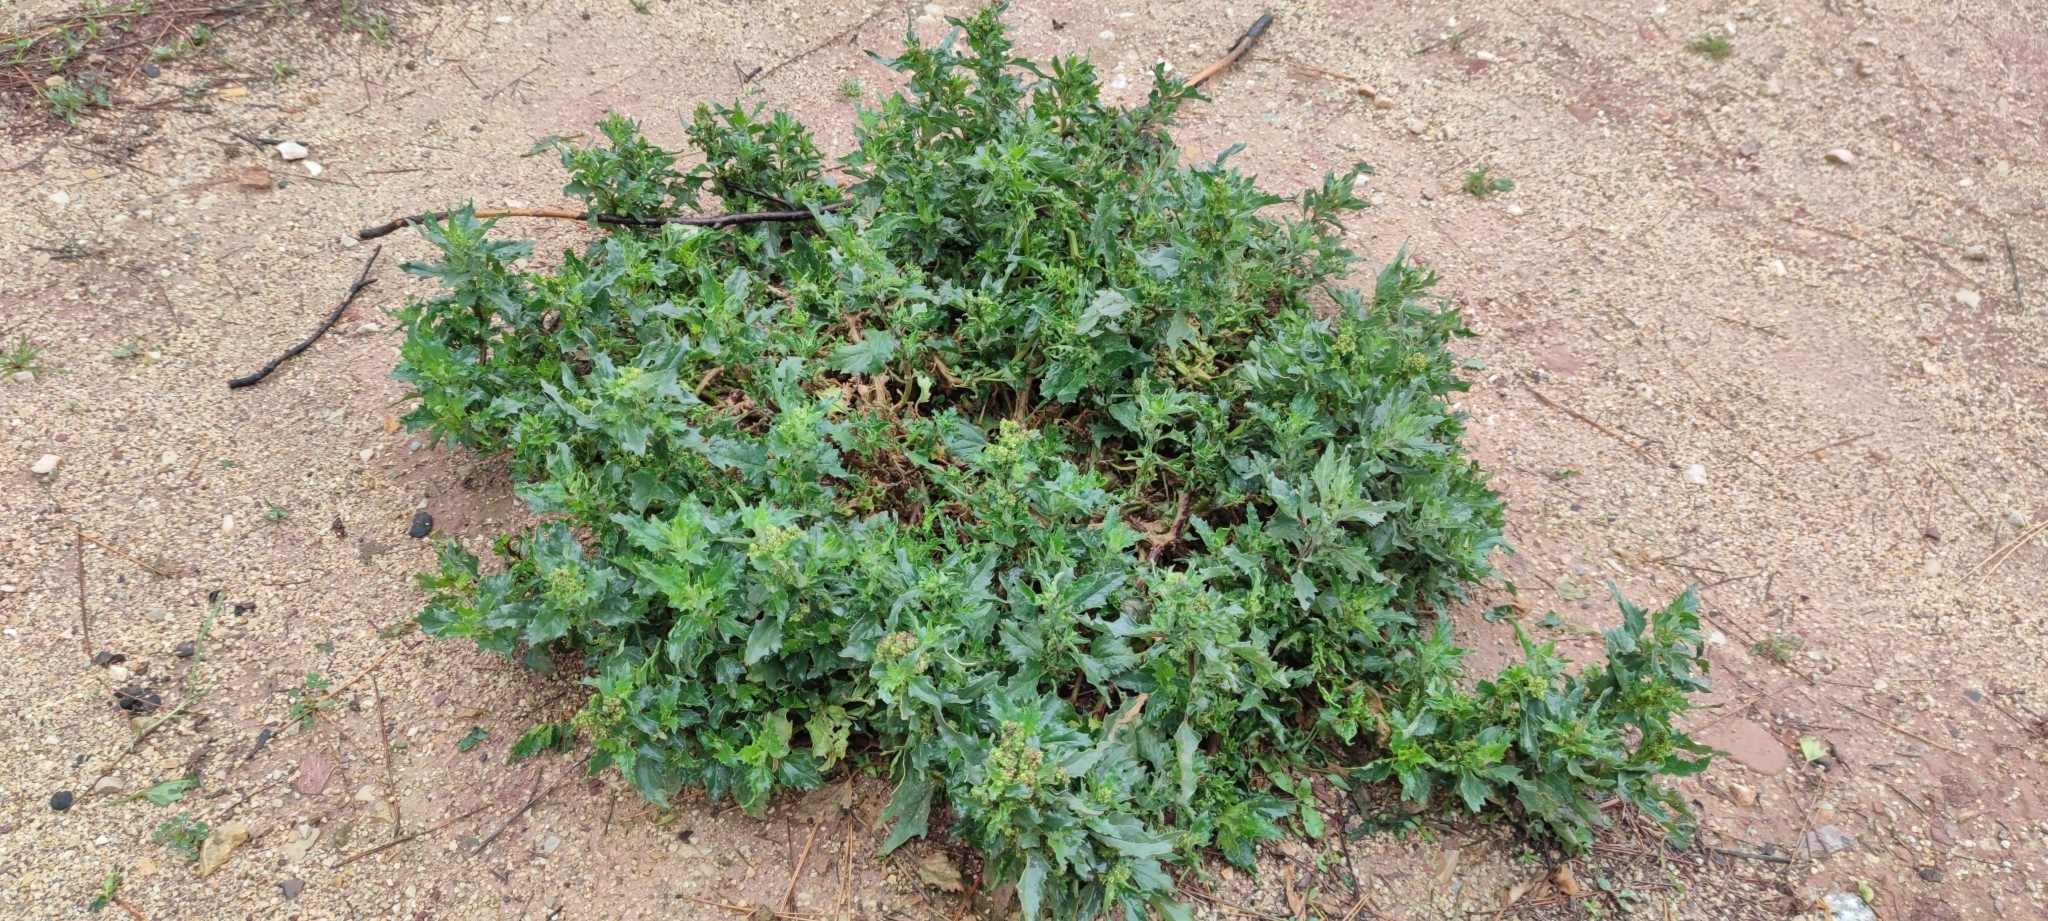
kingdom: Plantae
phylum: Tracheophyta
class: Magnoliopsida
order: Caryophyllales
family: Amaranthaceae
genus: Chenopodiastrum
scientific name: Chenopodiastrum murale
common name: Sowbane
